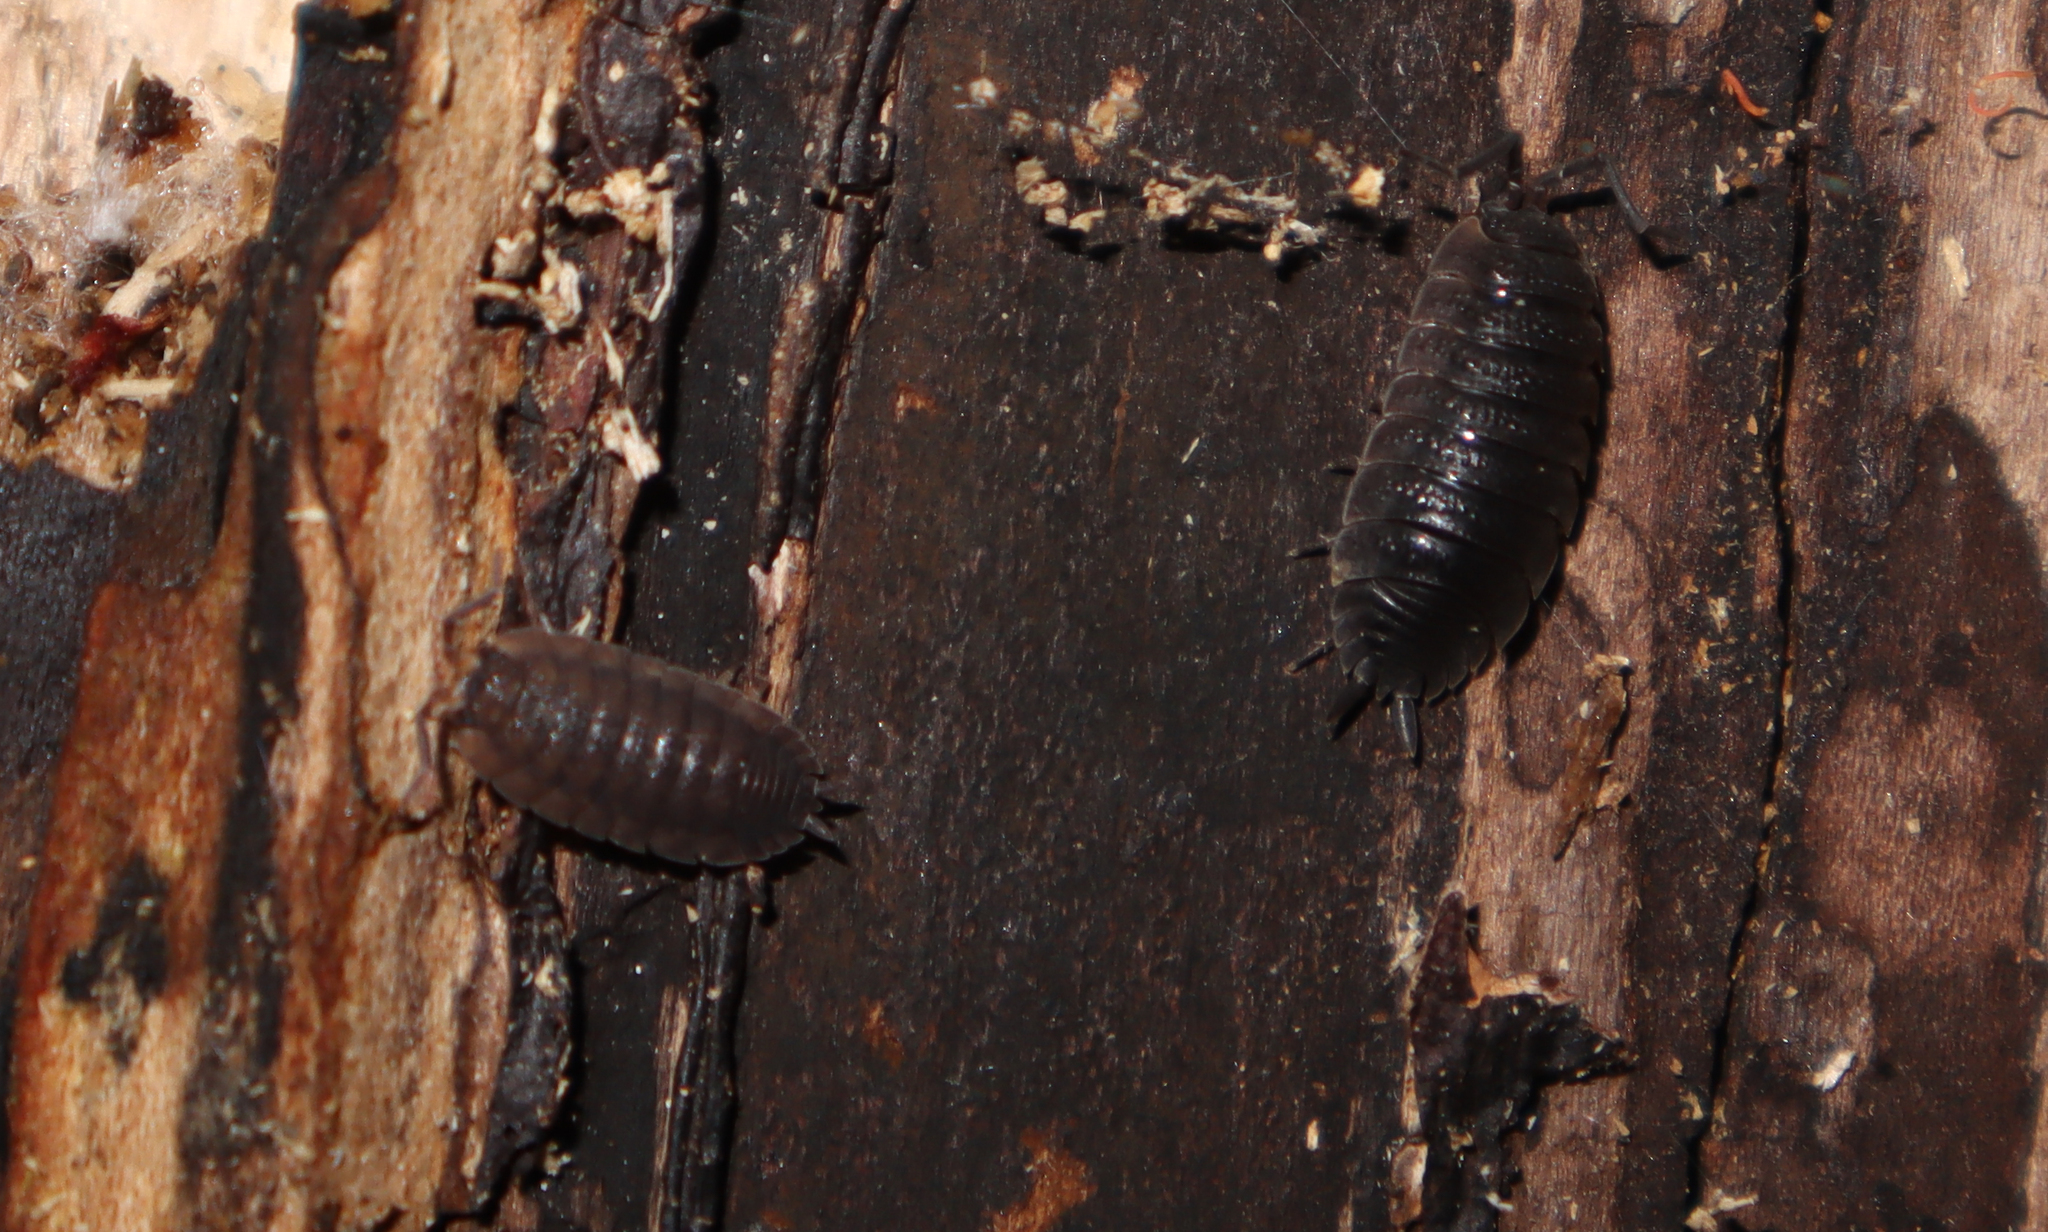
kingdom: Animalia
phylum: Arthropoda
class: Malacostraca
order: Isopoda
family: Porcellionidae
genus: Porcellio
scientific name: Porcellio scaber
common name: Common rough woodlouse
